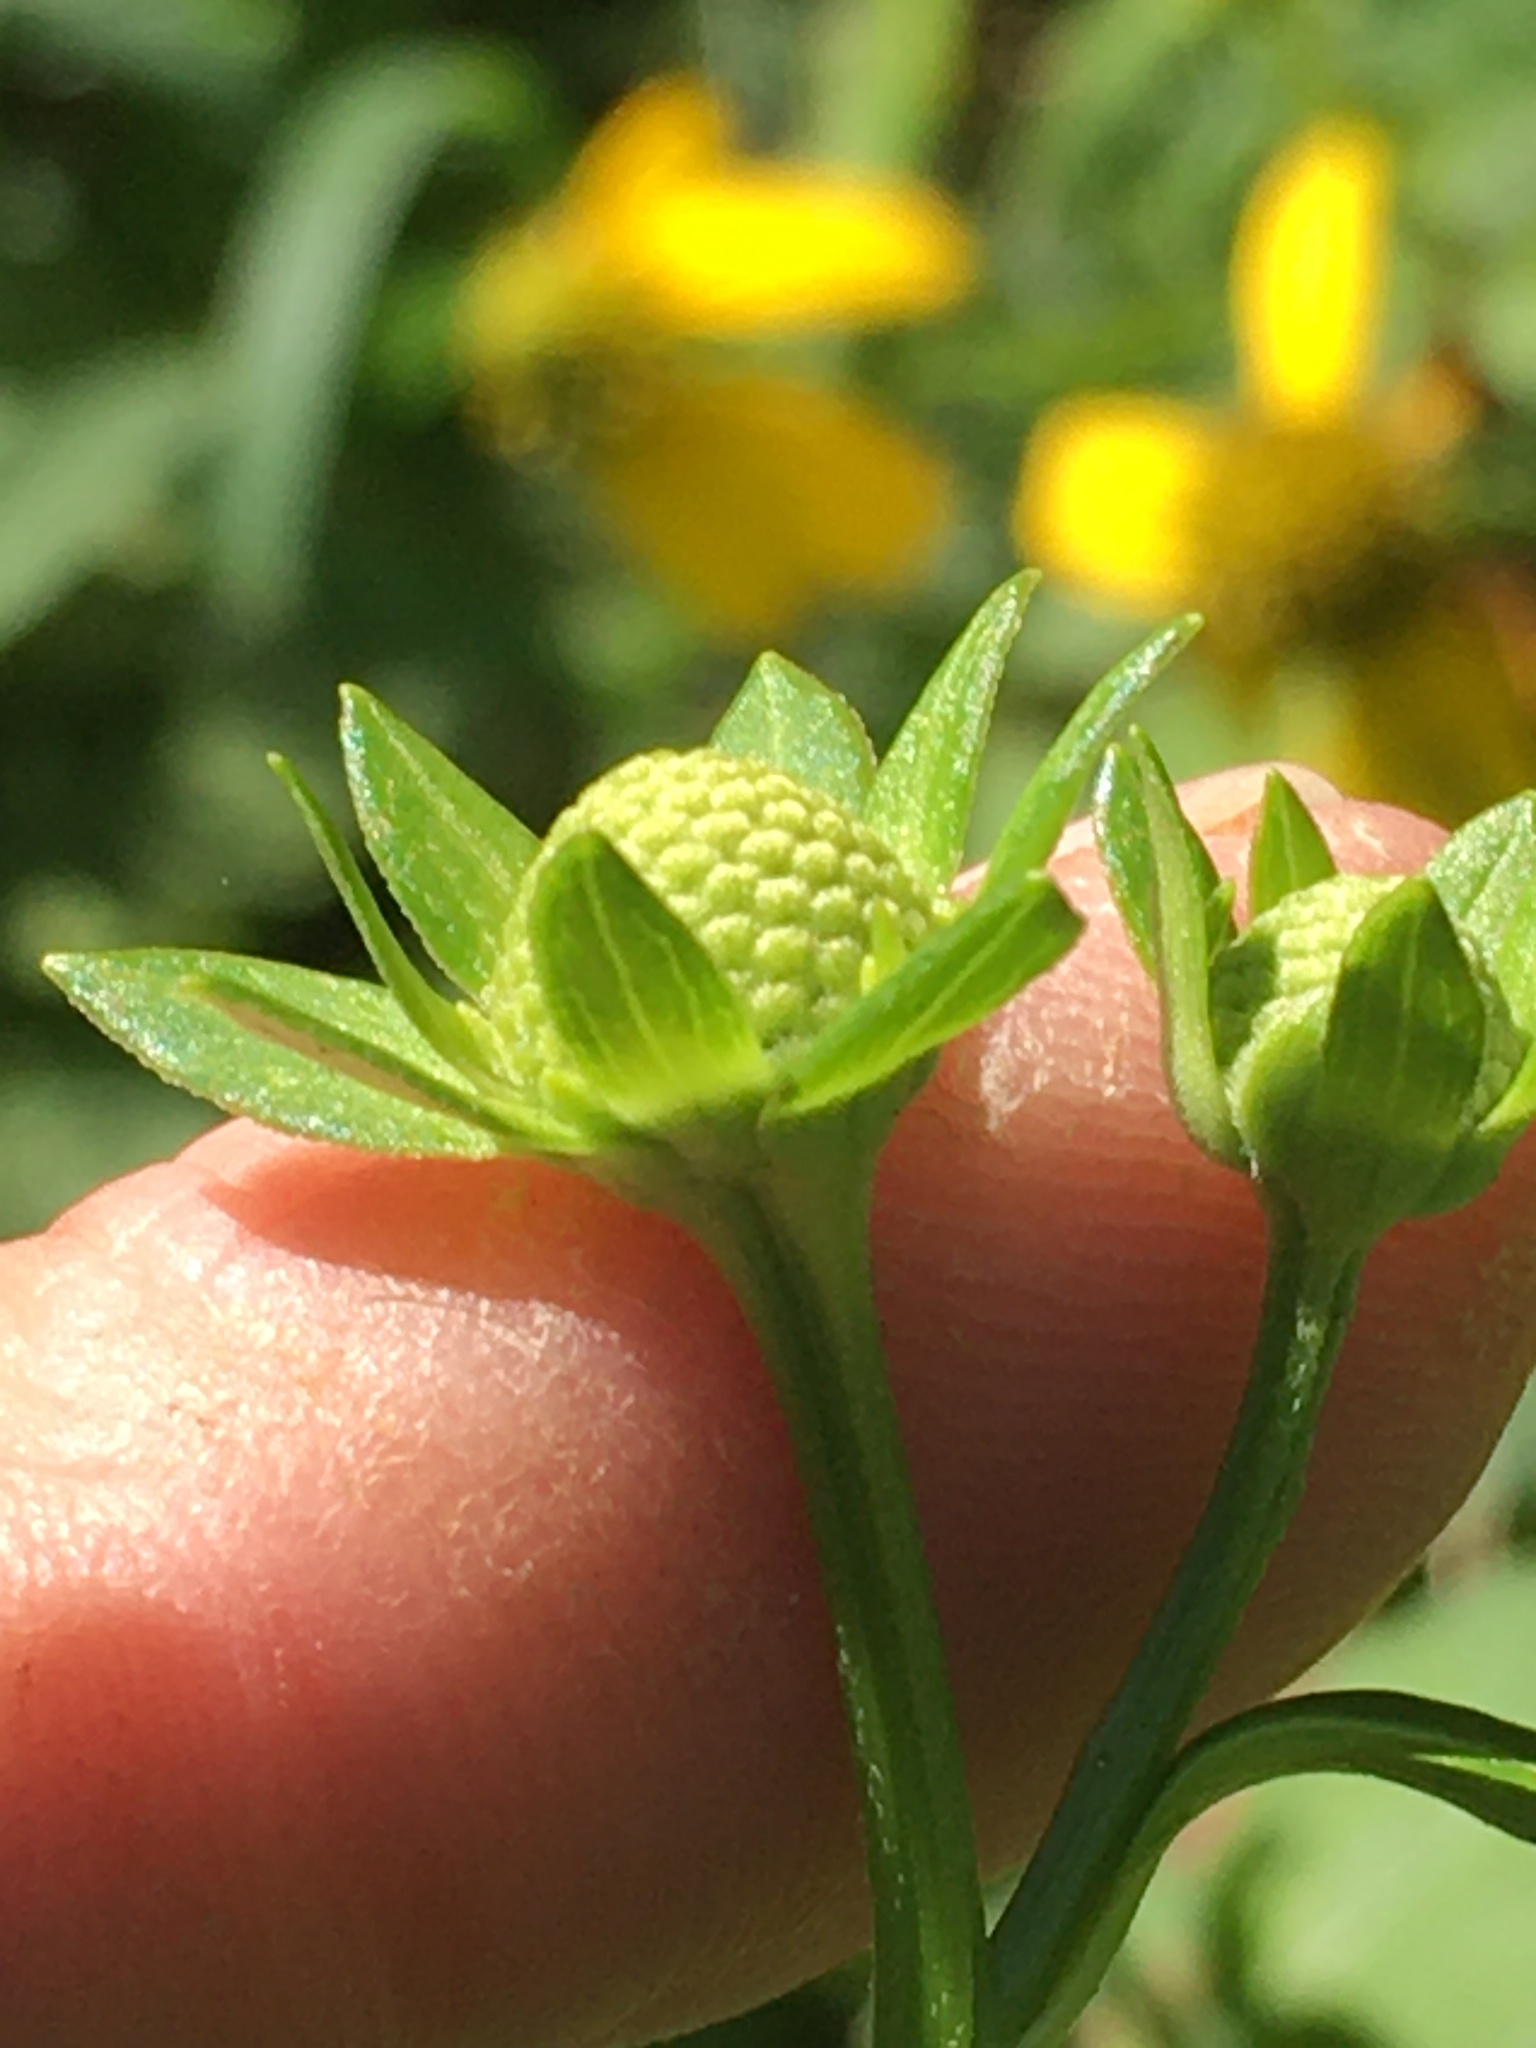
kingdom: Plantae
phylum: Tracheophyta
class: Magnoliopsida
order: Asterales
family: Asteraceae
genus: Rudbeckia
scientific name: Rudbeckia laciniata
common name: Coneflower
